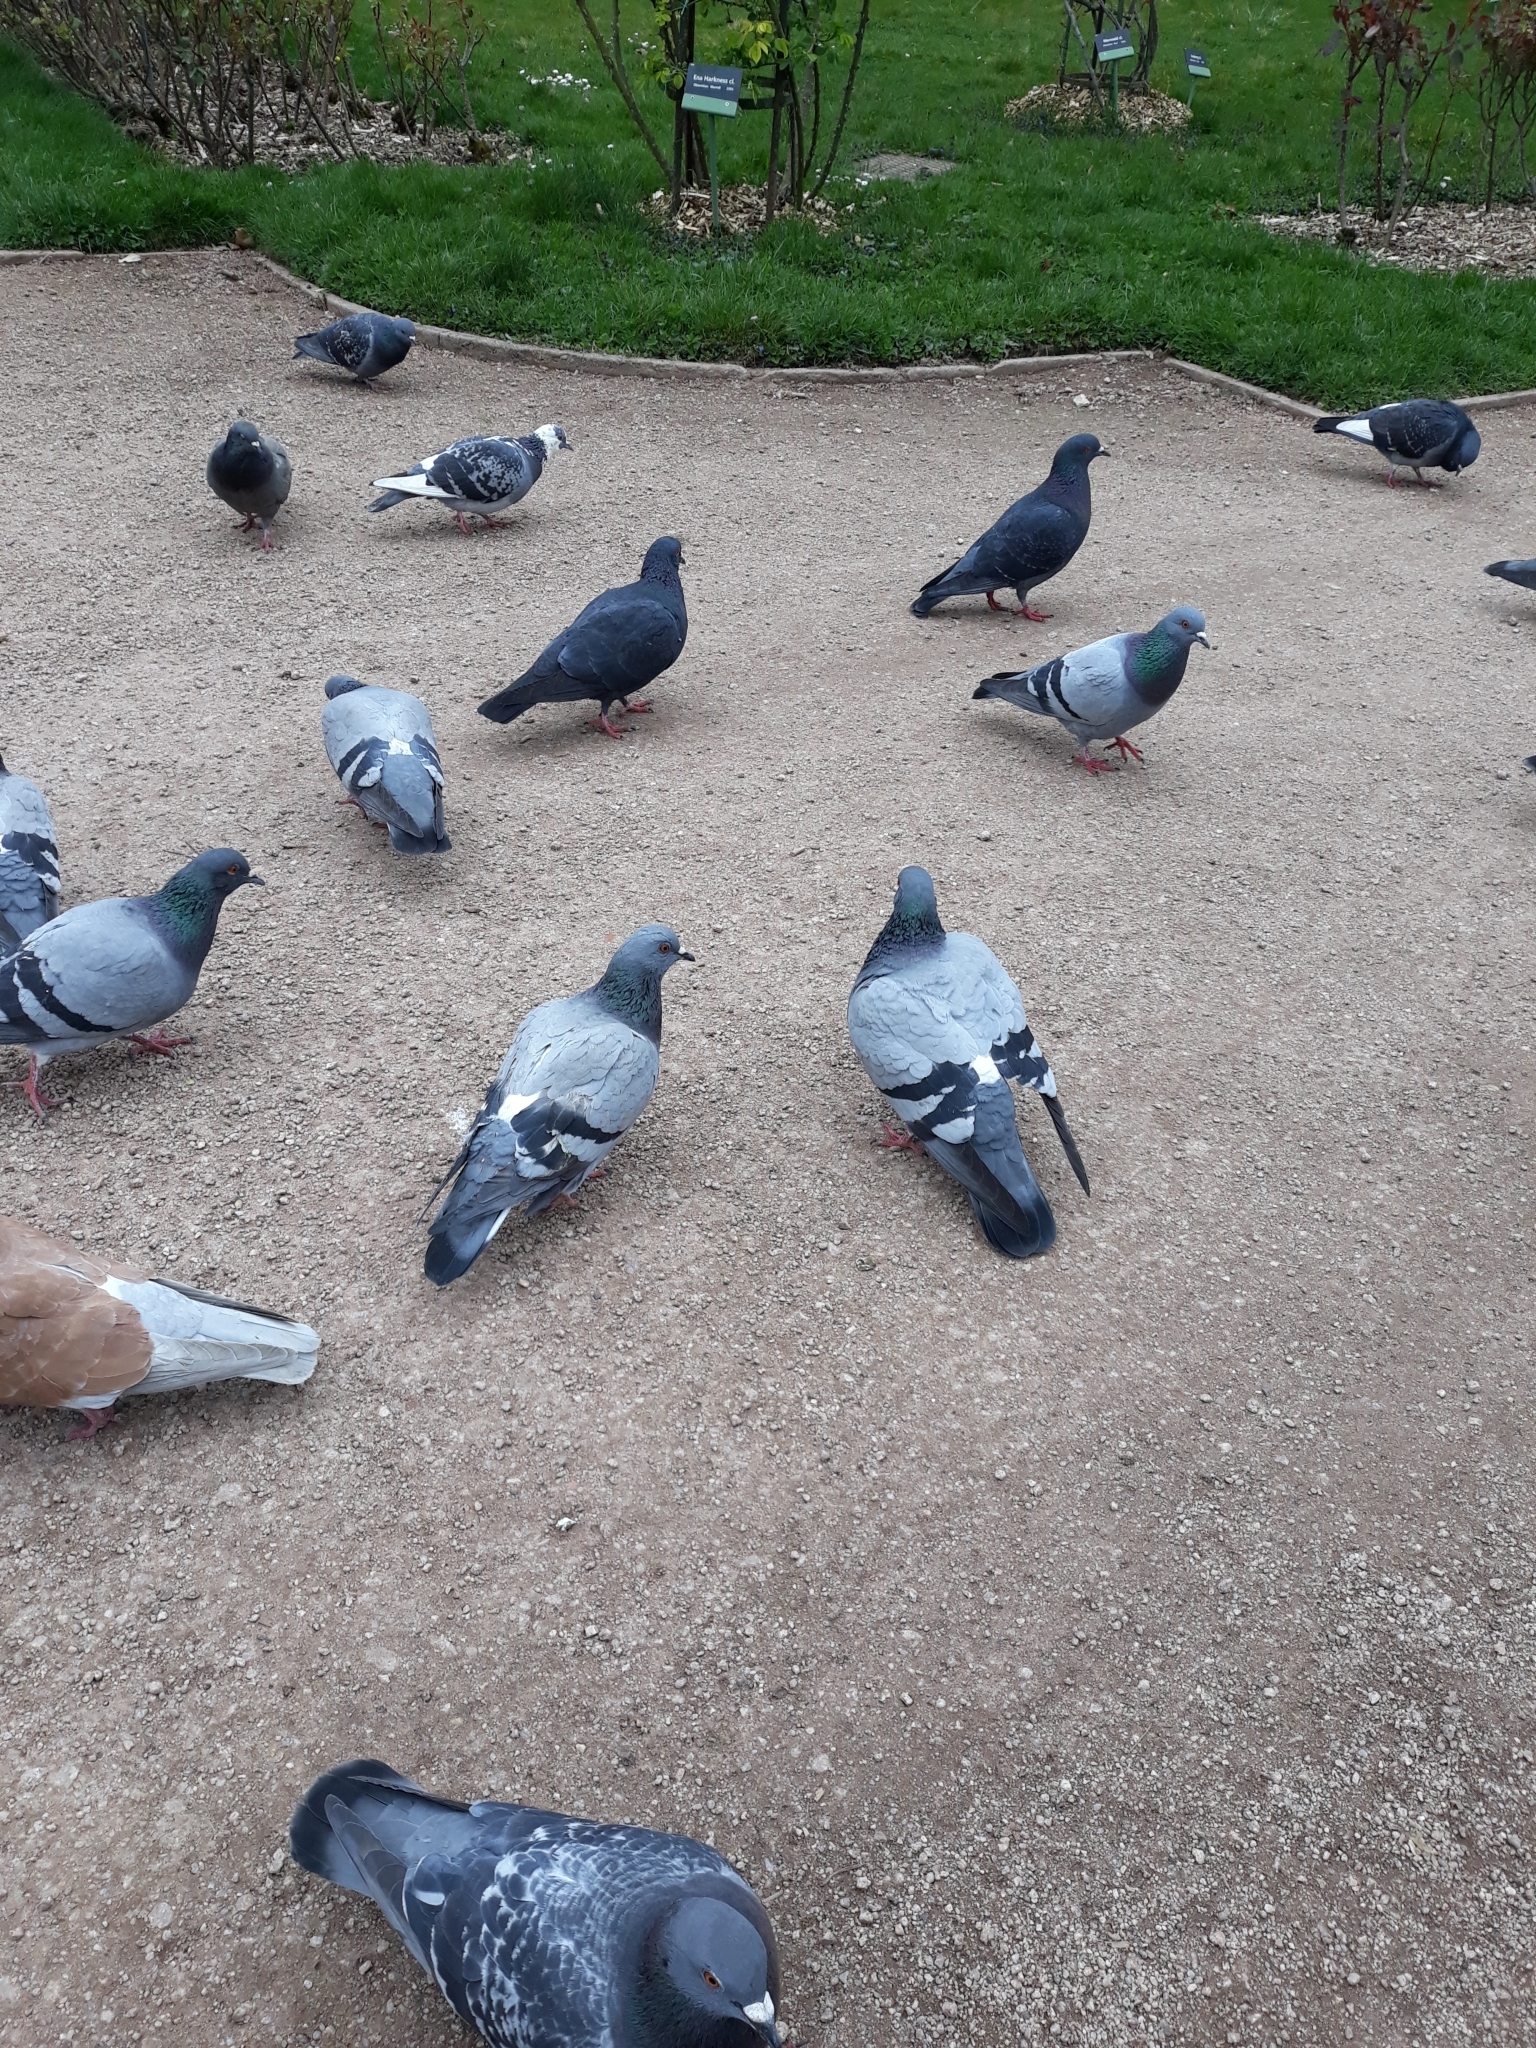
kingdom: Animalia
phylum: Chordata
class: Aves
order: Columbiformes
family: Columbidae
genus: Columba
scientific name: Columba livia
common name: Rock pigeon
